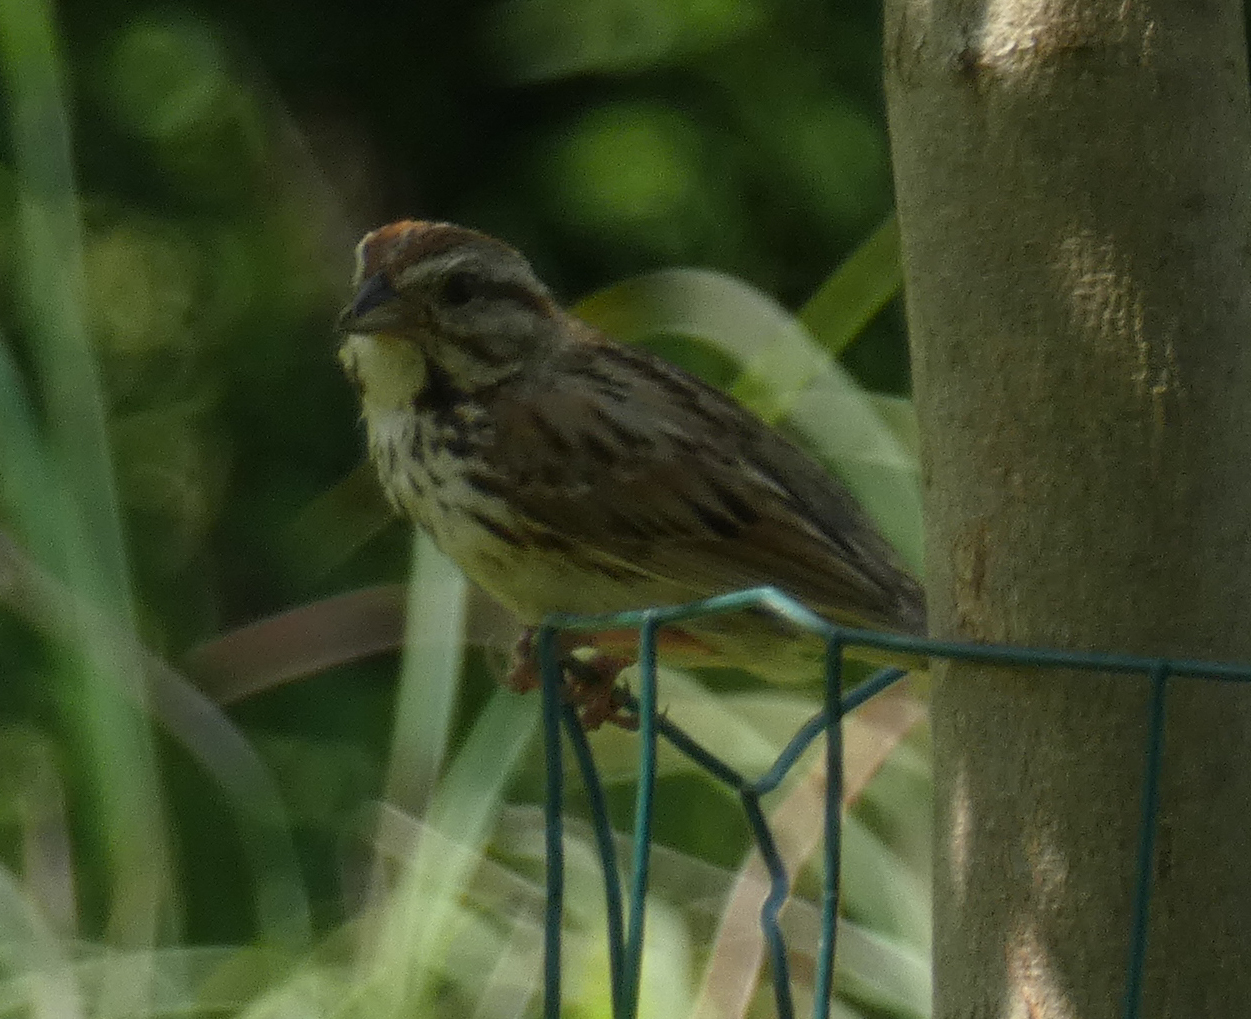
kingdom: Animalia
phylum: Chordata
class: Aves
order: Passeriformes
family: Passerellidae
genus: Melospiza
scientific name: Melospiza melodia
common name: Song sparrow
